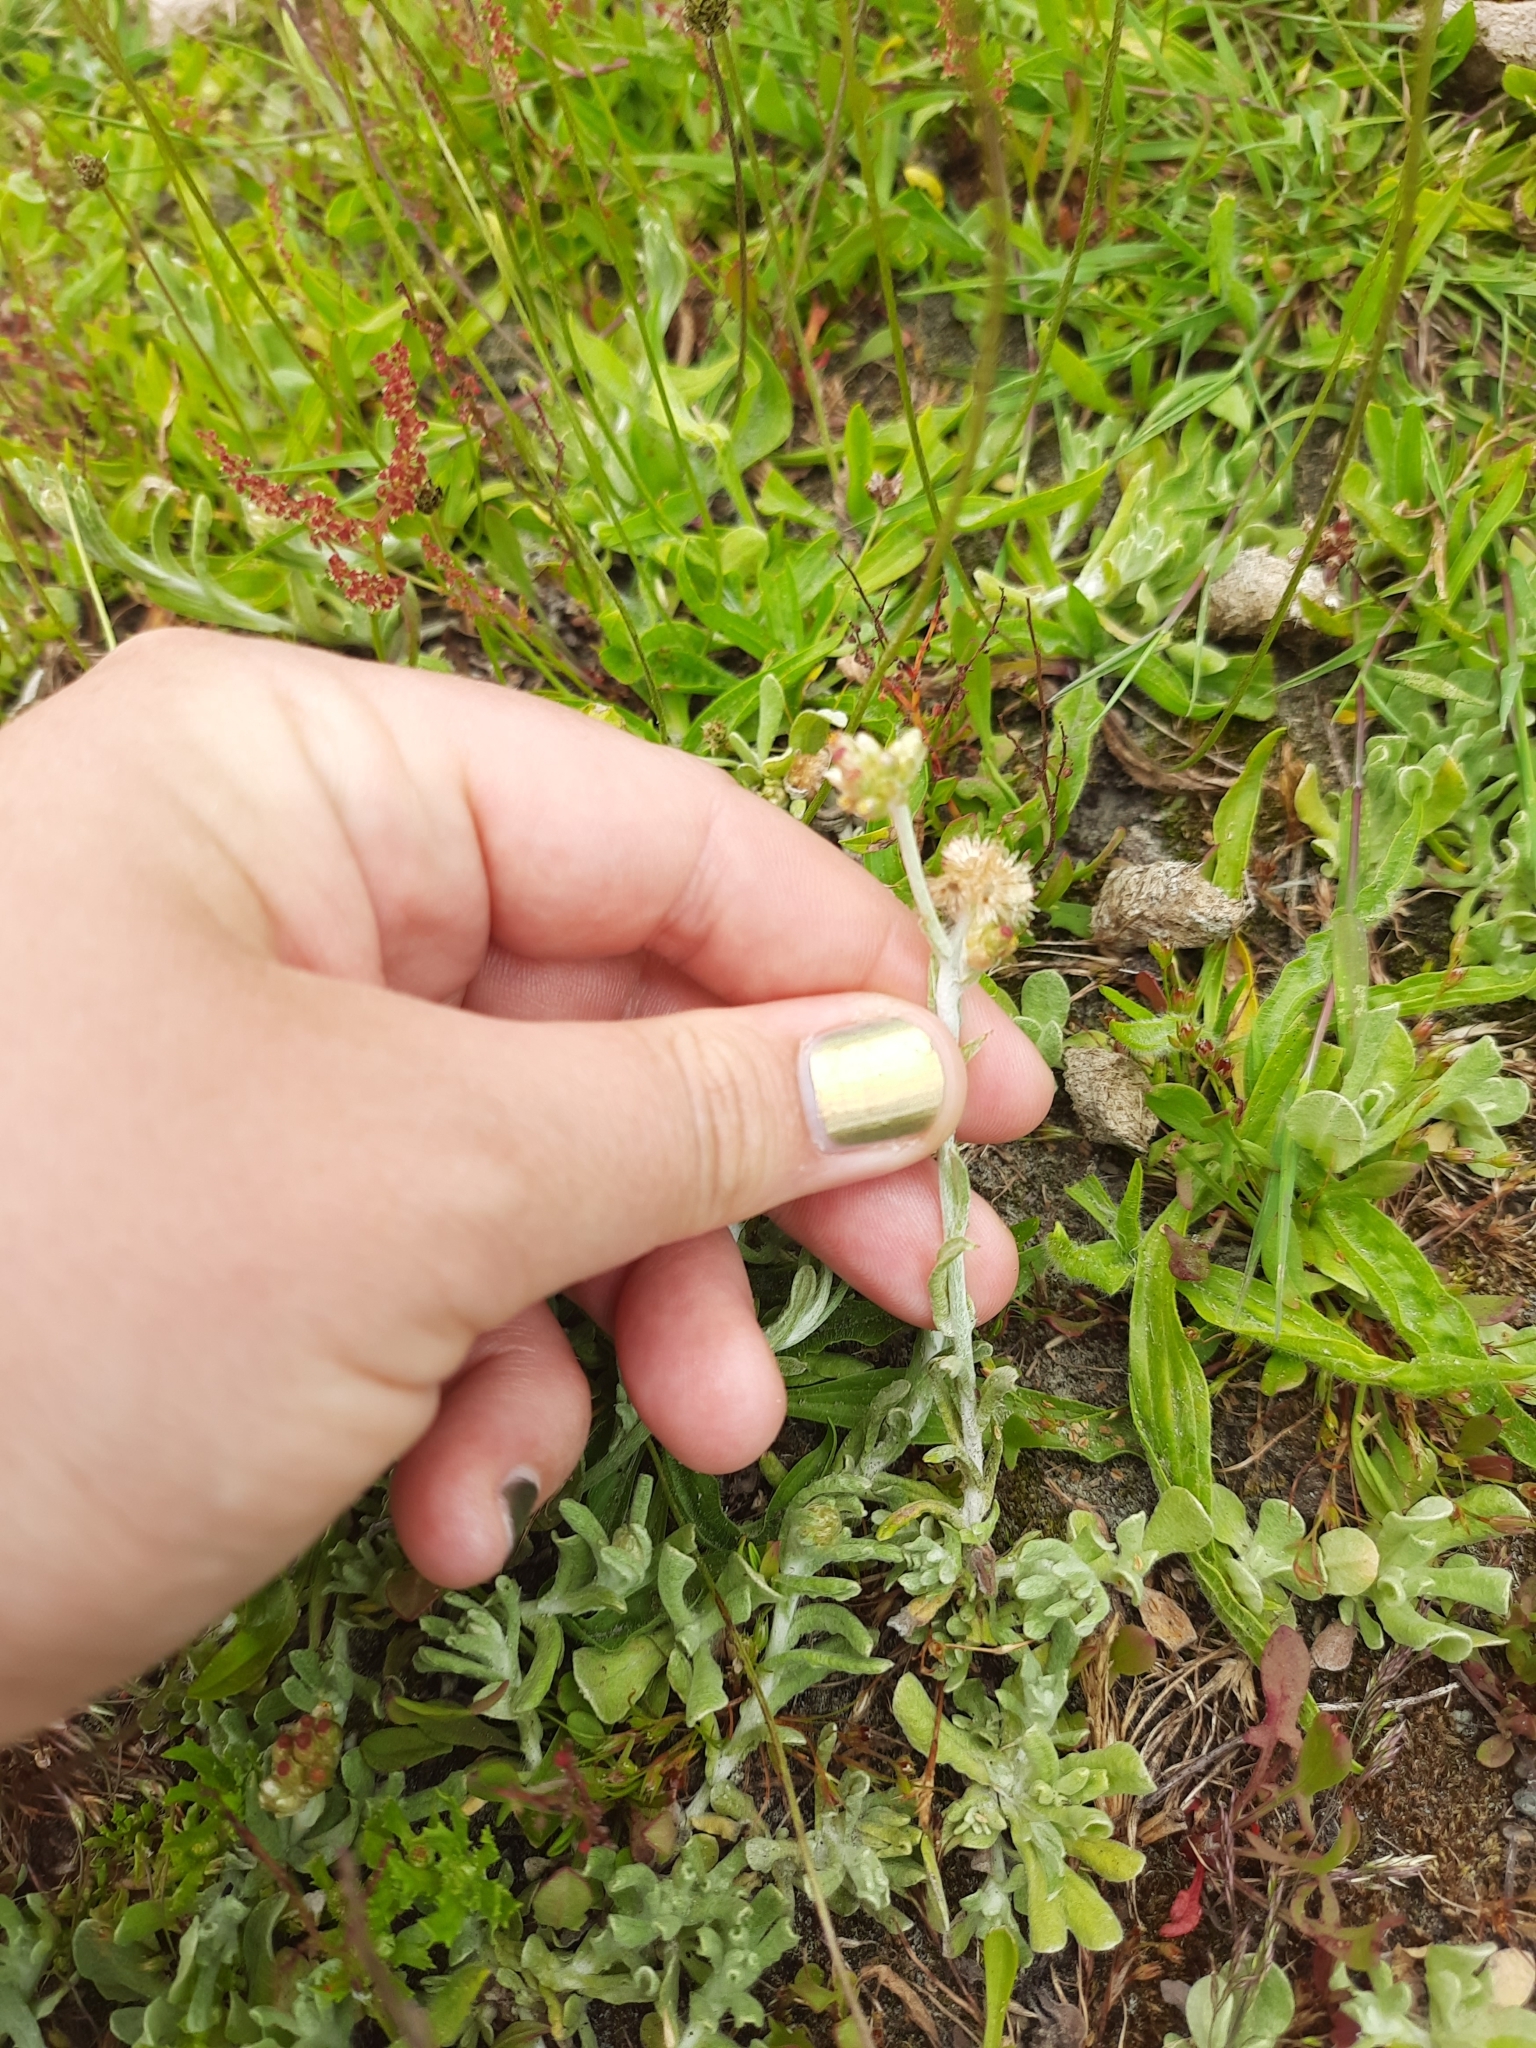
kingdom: Plantae
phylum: Tracheophyta
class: Magnoliopsida
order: Asterales
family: Asteraceae
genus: Helichrysum
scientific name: Helichrysum luteoalbum
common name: Daisy
